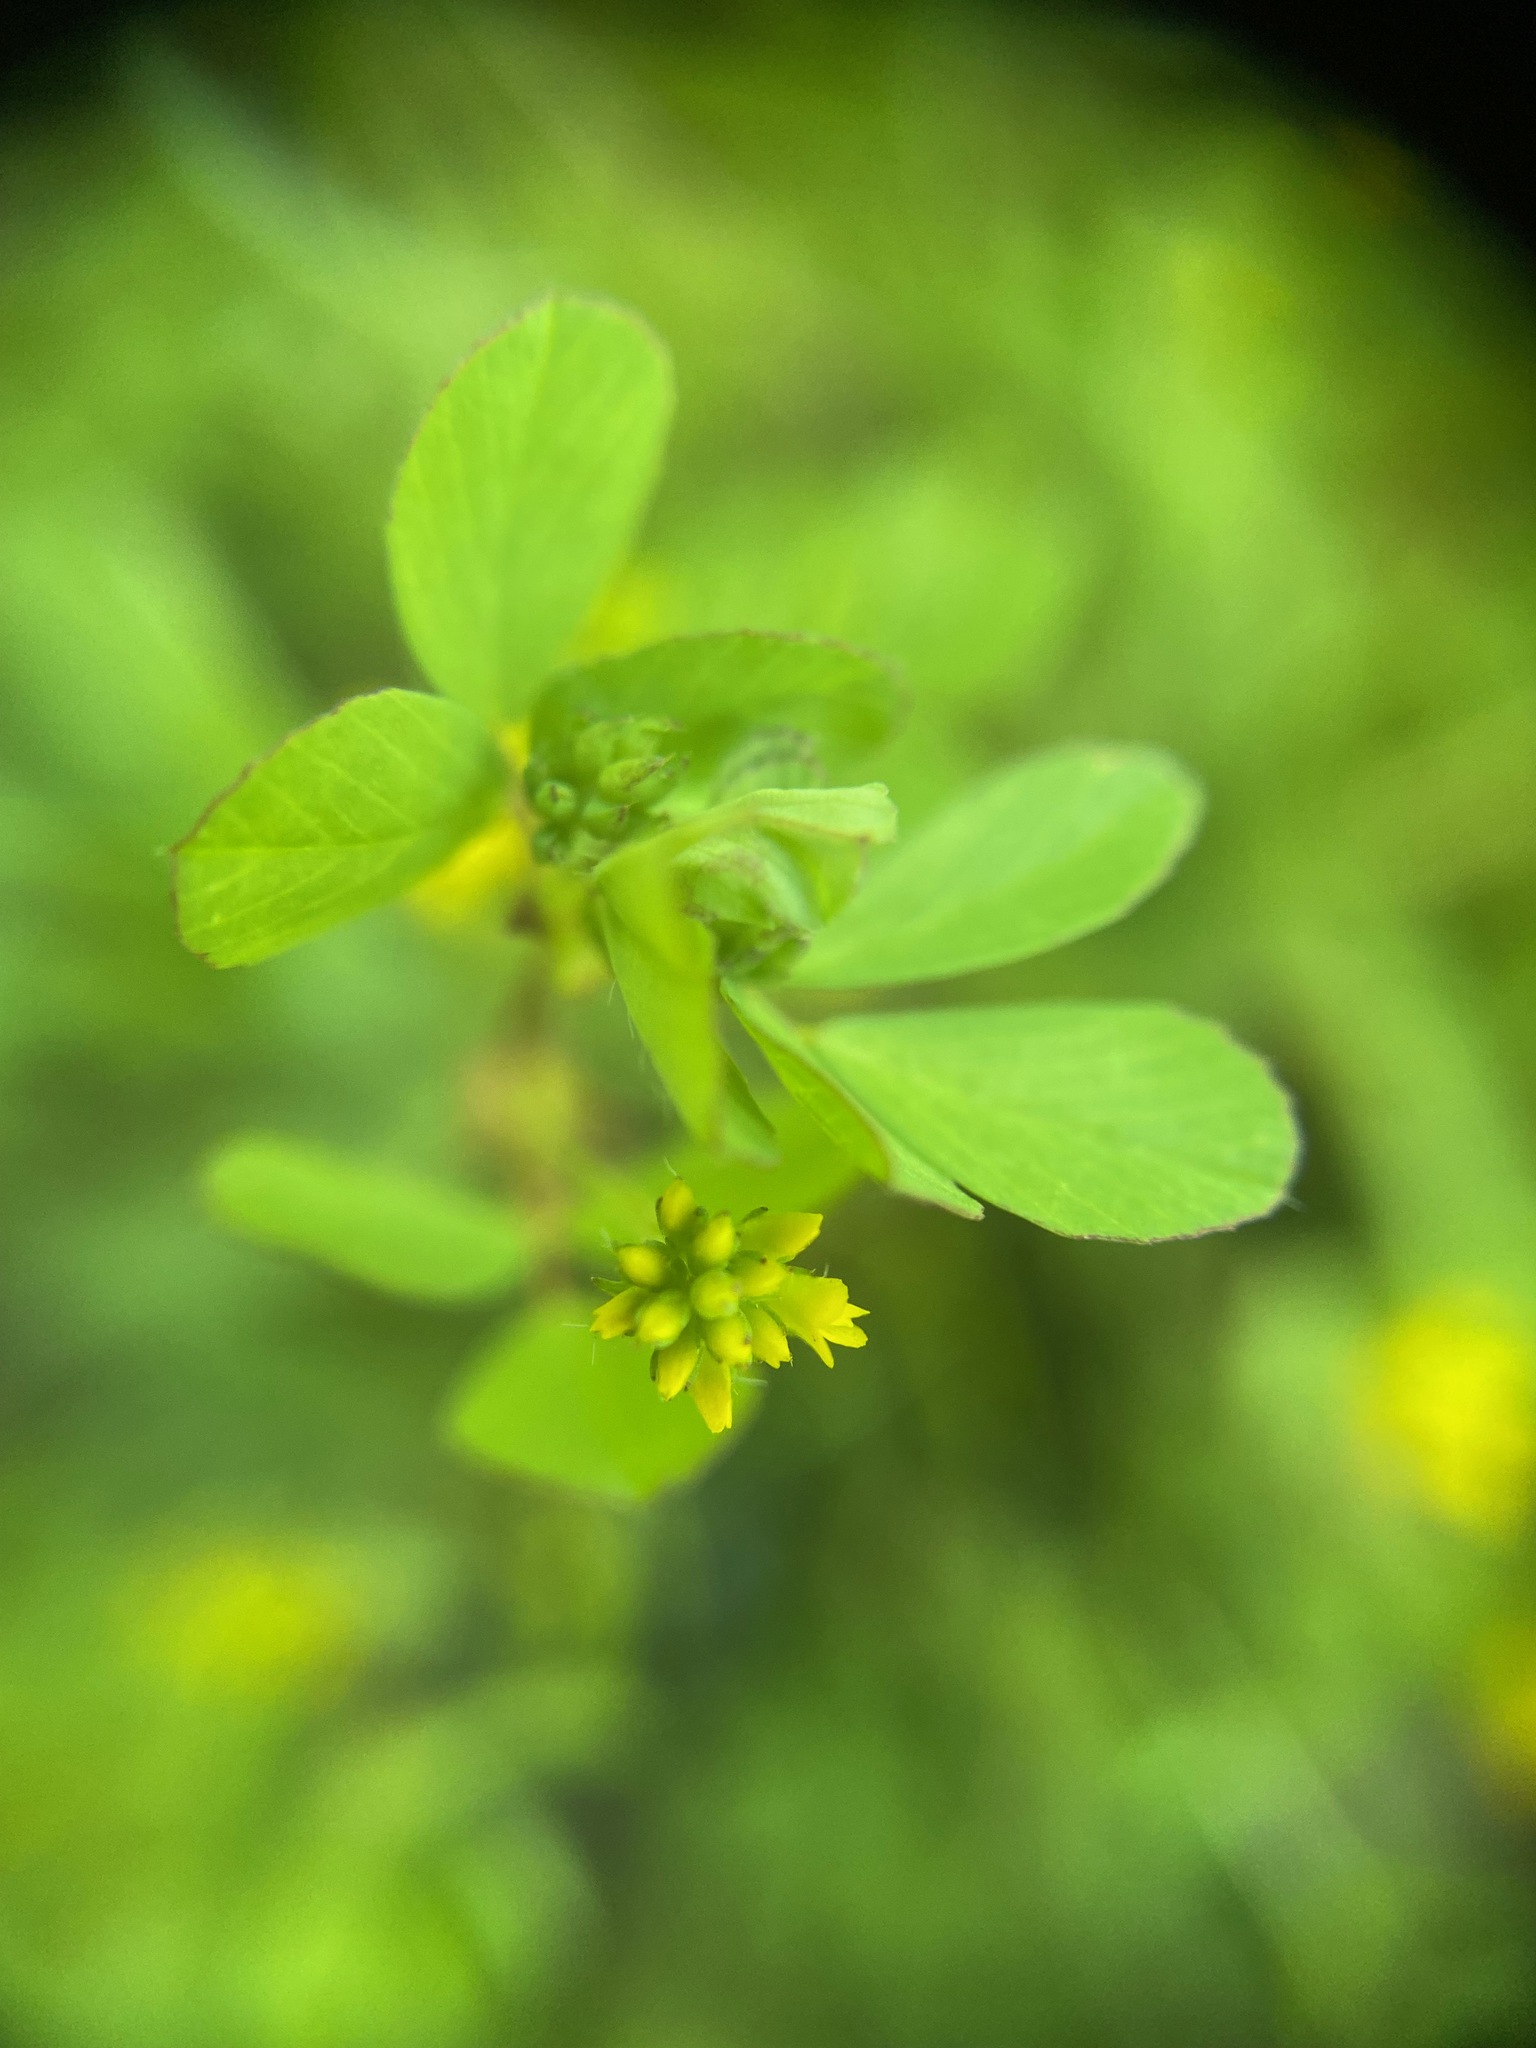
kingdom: Plantae
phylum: Tracheophyta
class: Magnoliopsida
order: Fabales
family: Fabaceae
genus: Trifolium
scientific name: Trifolium dubium
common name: Suckling clover
